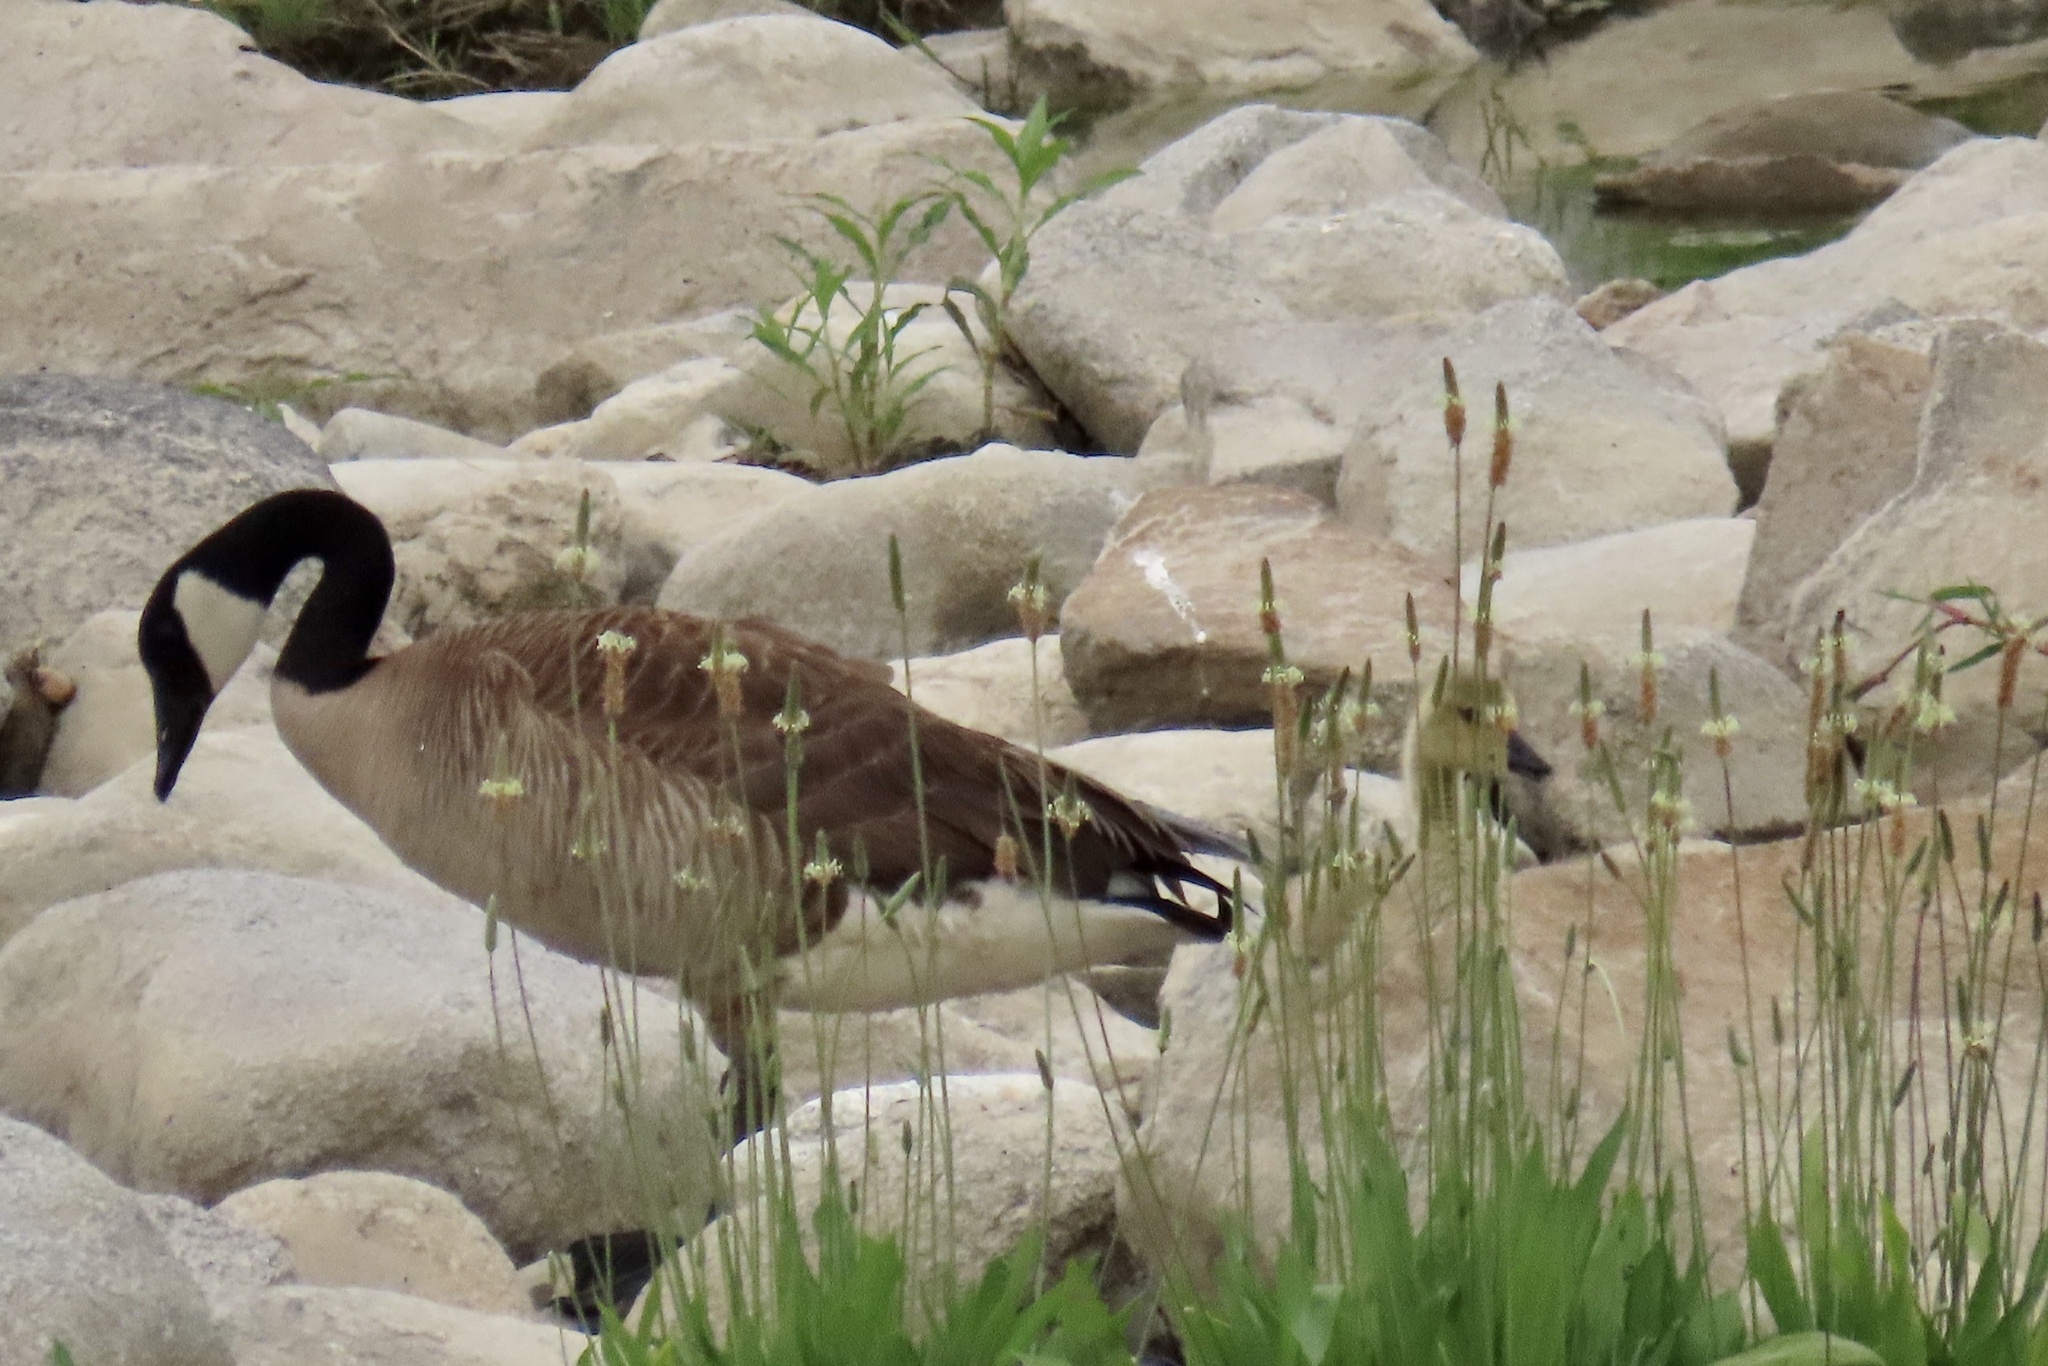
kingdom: Animalia
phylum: Chordata
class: Aves
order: Anseriformes
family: Anatidae
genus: Branta
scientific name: Branta canadensis
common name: Canada goose
